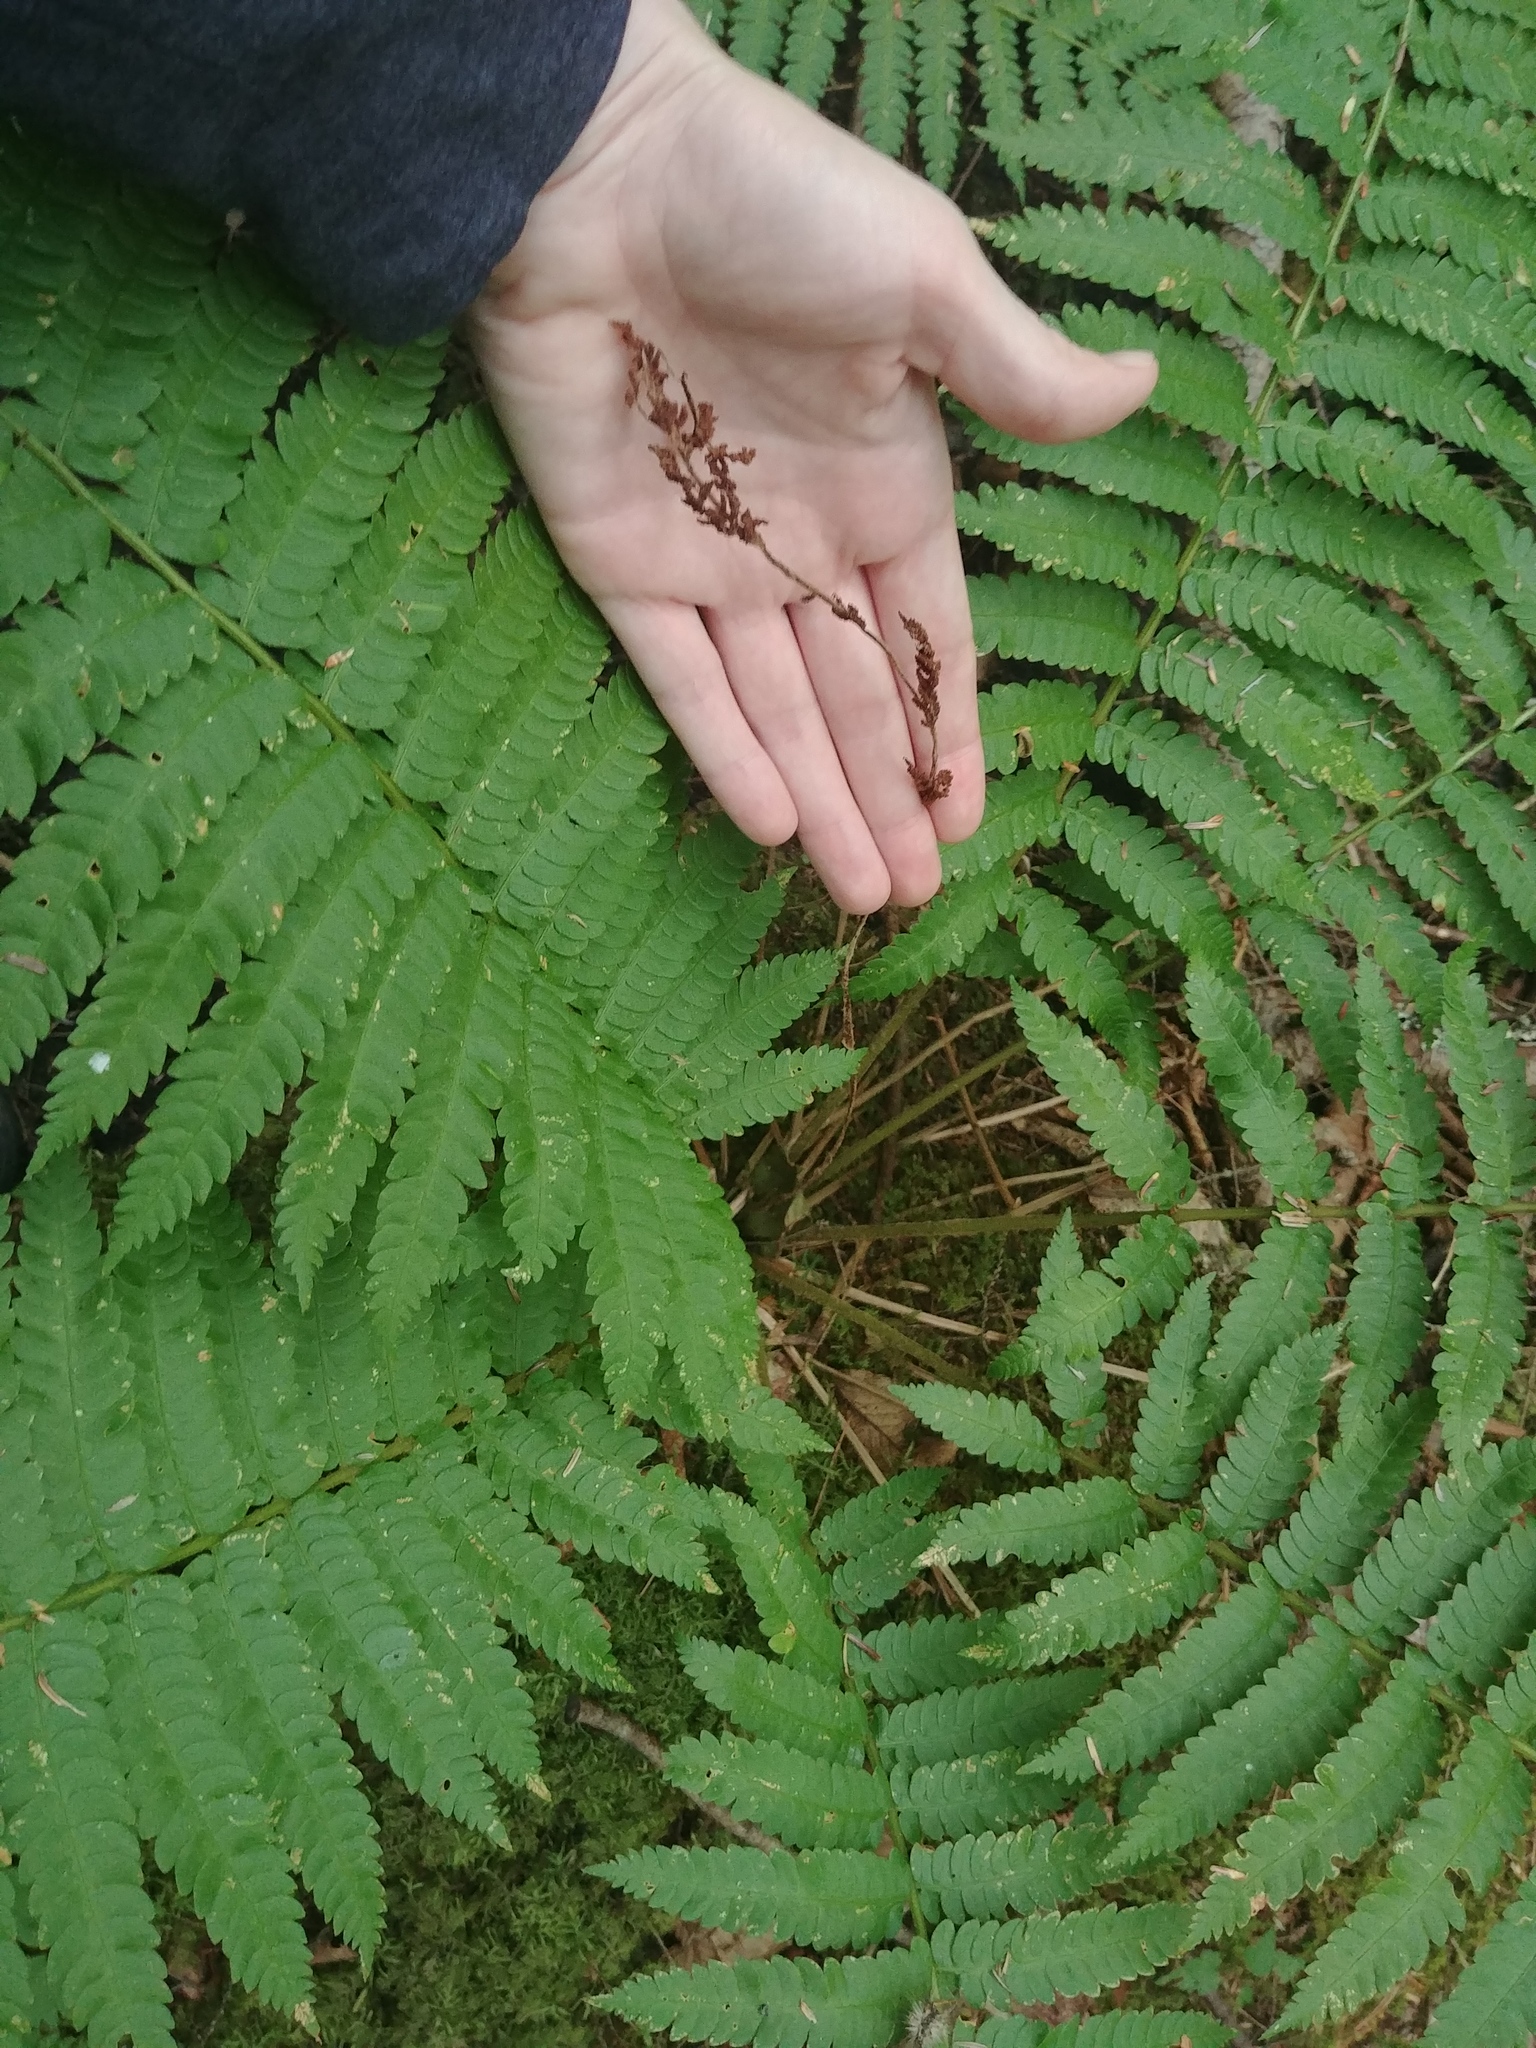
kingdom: Plantae
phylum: Tracheophyta
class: Polypodiopsida
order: Osmundales
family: Osmundaceae
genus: Osmundastrum
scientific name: Osmundastrum cinnamomeum
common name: Cinnamon fern
